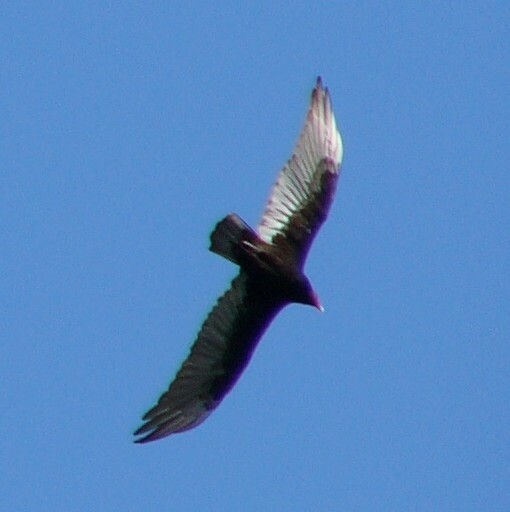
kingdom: Animalia
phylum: Chordata
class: Aves
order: Accipitriformes
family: Cathartidae
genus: Cathartes
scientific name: Cathartes aura
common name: Turkey vulture
